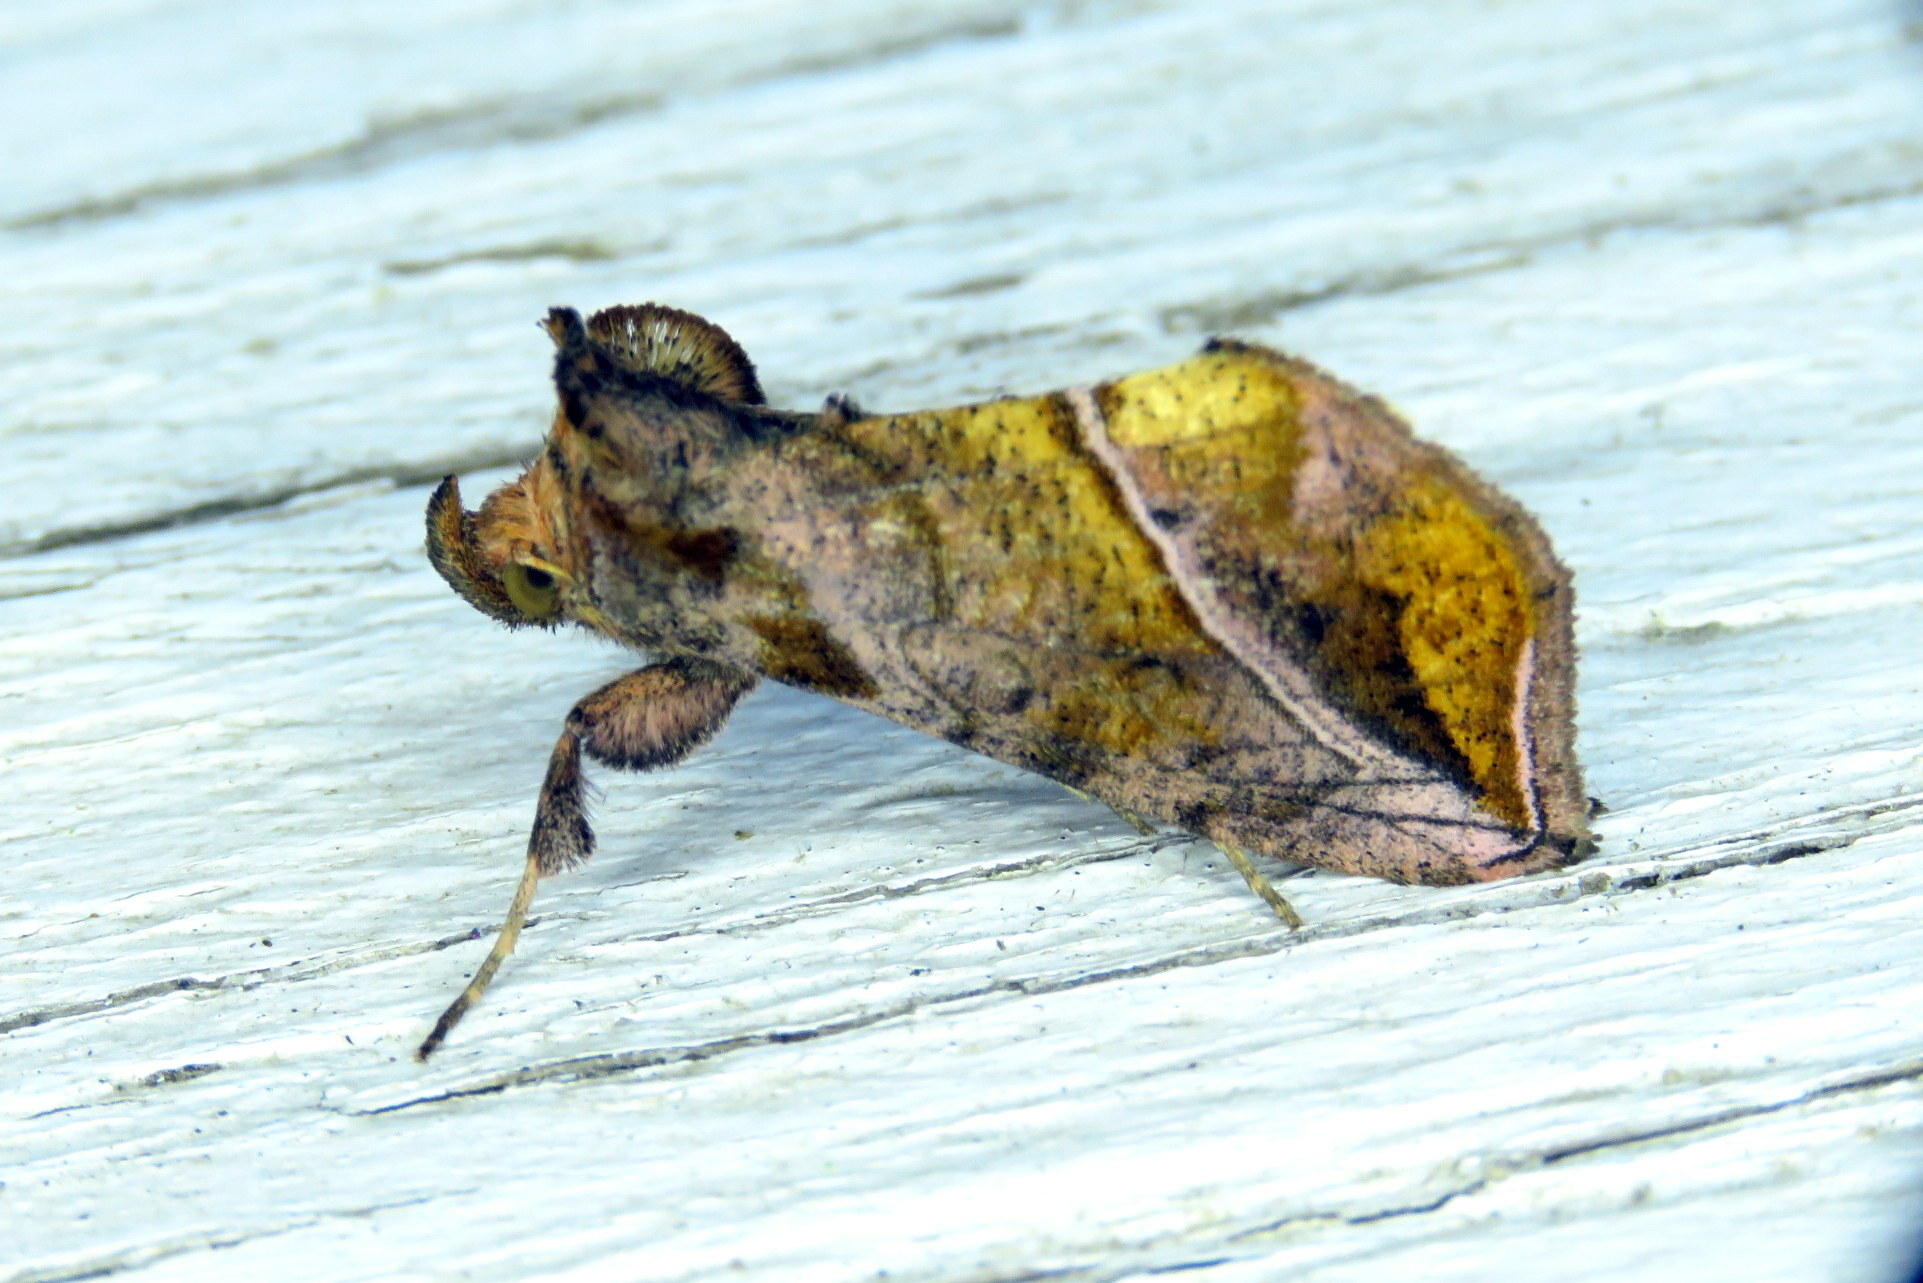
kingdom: Animalia
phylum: Arthropoda
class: Insecta
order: Lepidoptera
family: Noctuidae
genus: Pseudeva
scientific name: Pseudeva purpurigera
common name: Straight-lined looper moth
